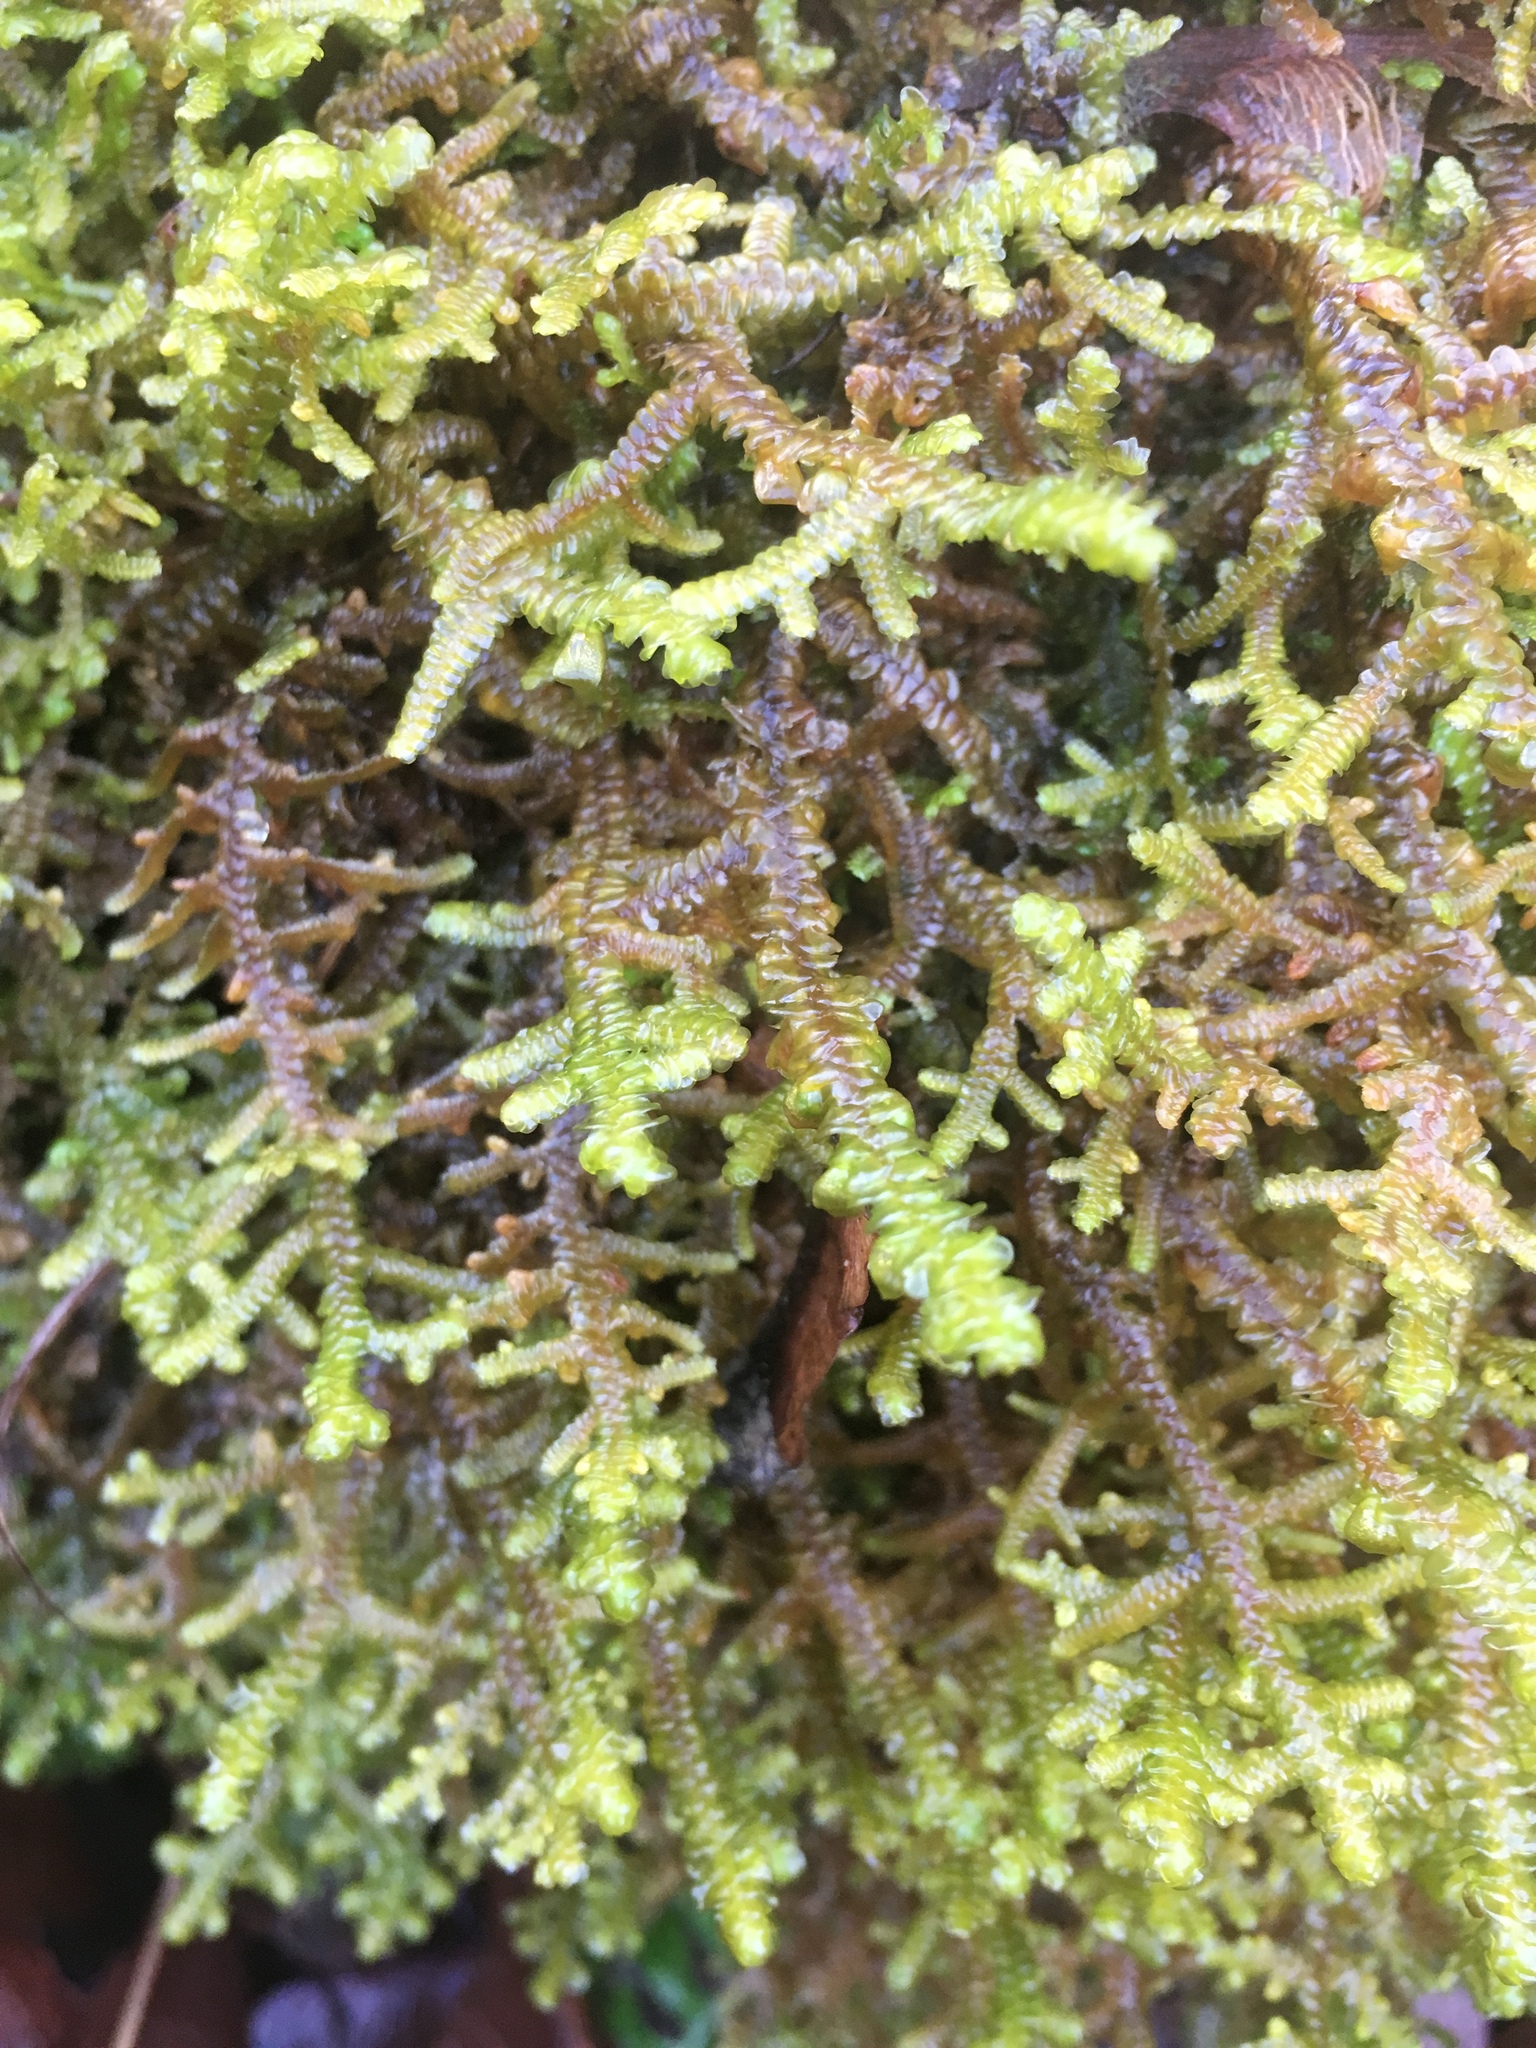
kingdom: Plantae
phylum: Marchantiophyta
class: Jungermanniopsida
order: Porellales
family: Porellaceae
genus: Porella
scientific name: Porella navicularis
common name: Tree ruffle liverwort
